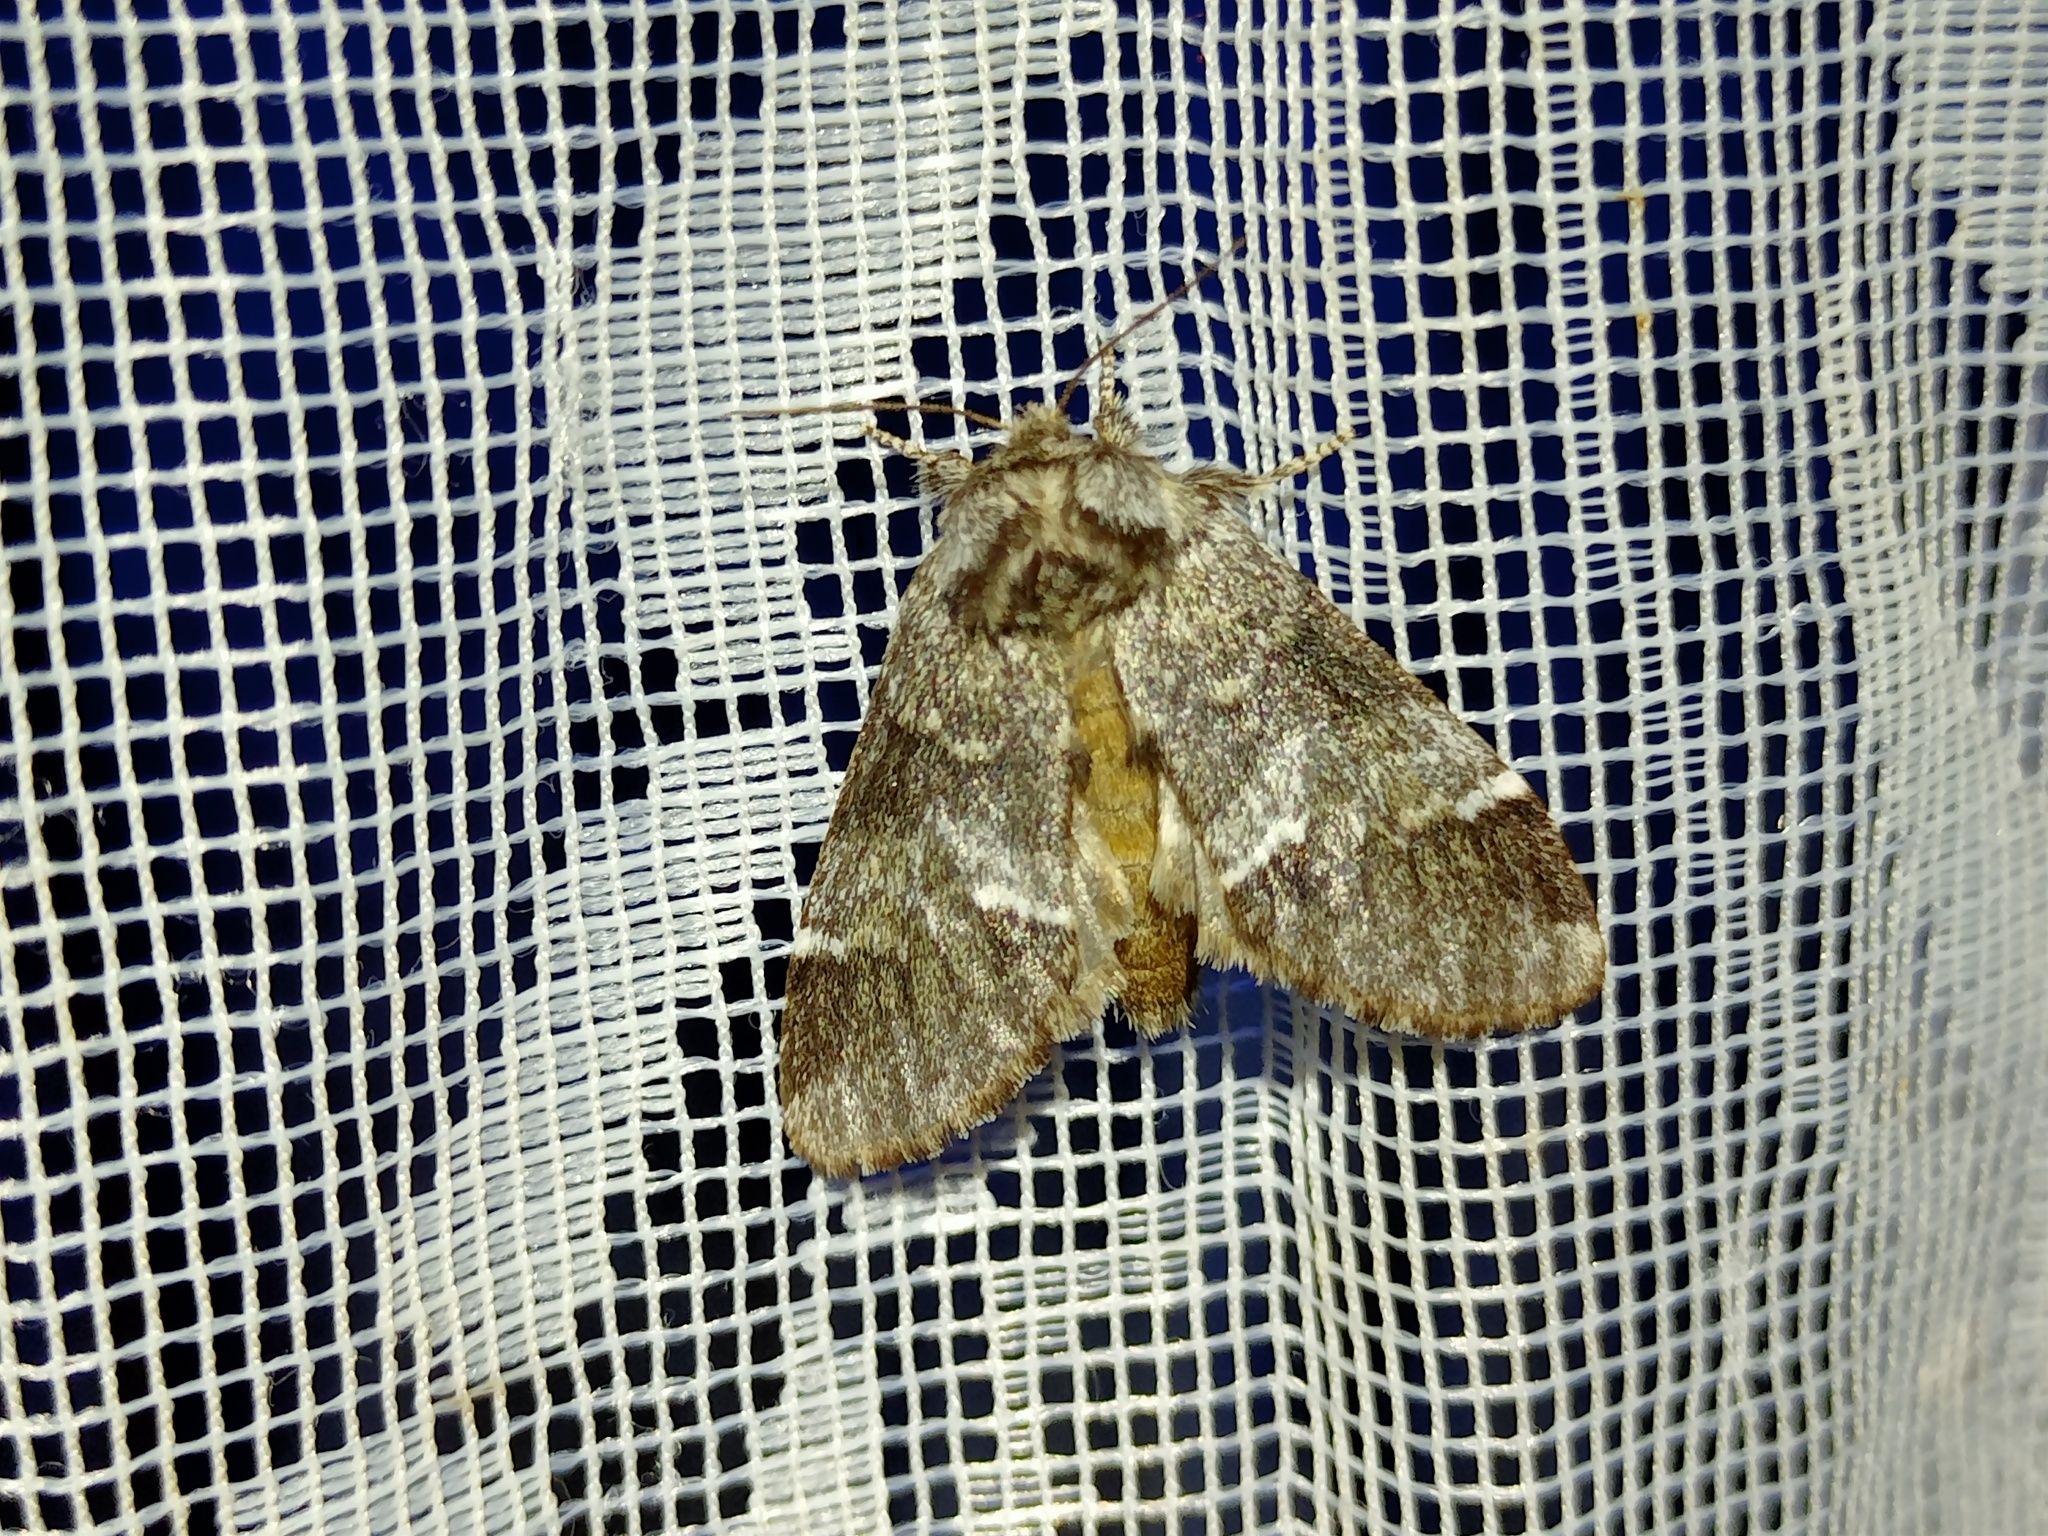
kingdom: Animalia
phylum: Arthropoda
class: Insecta
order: Lepidoptera
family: Notodontidae
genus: Drymonia
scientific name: Drymonia dodonaea
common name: Marbled brown
